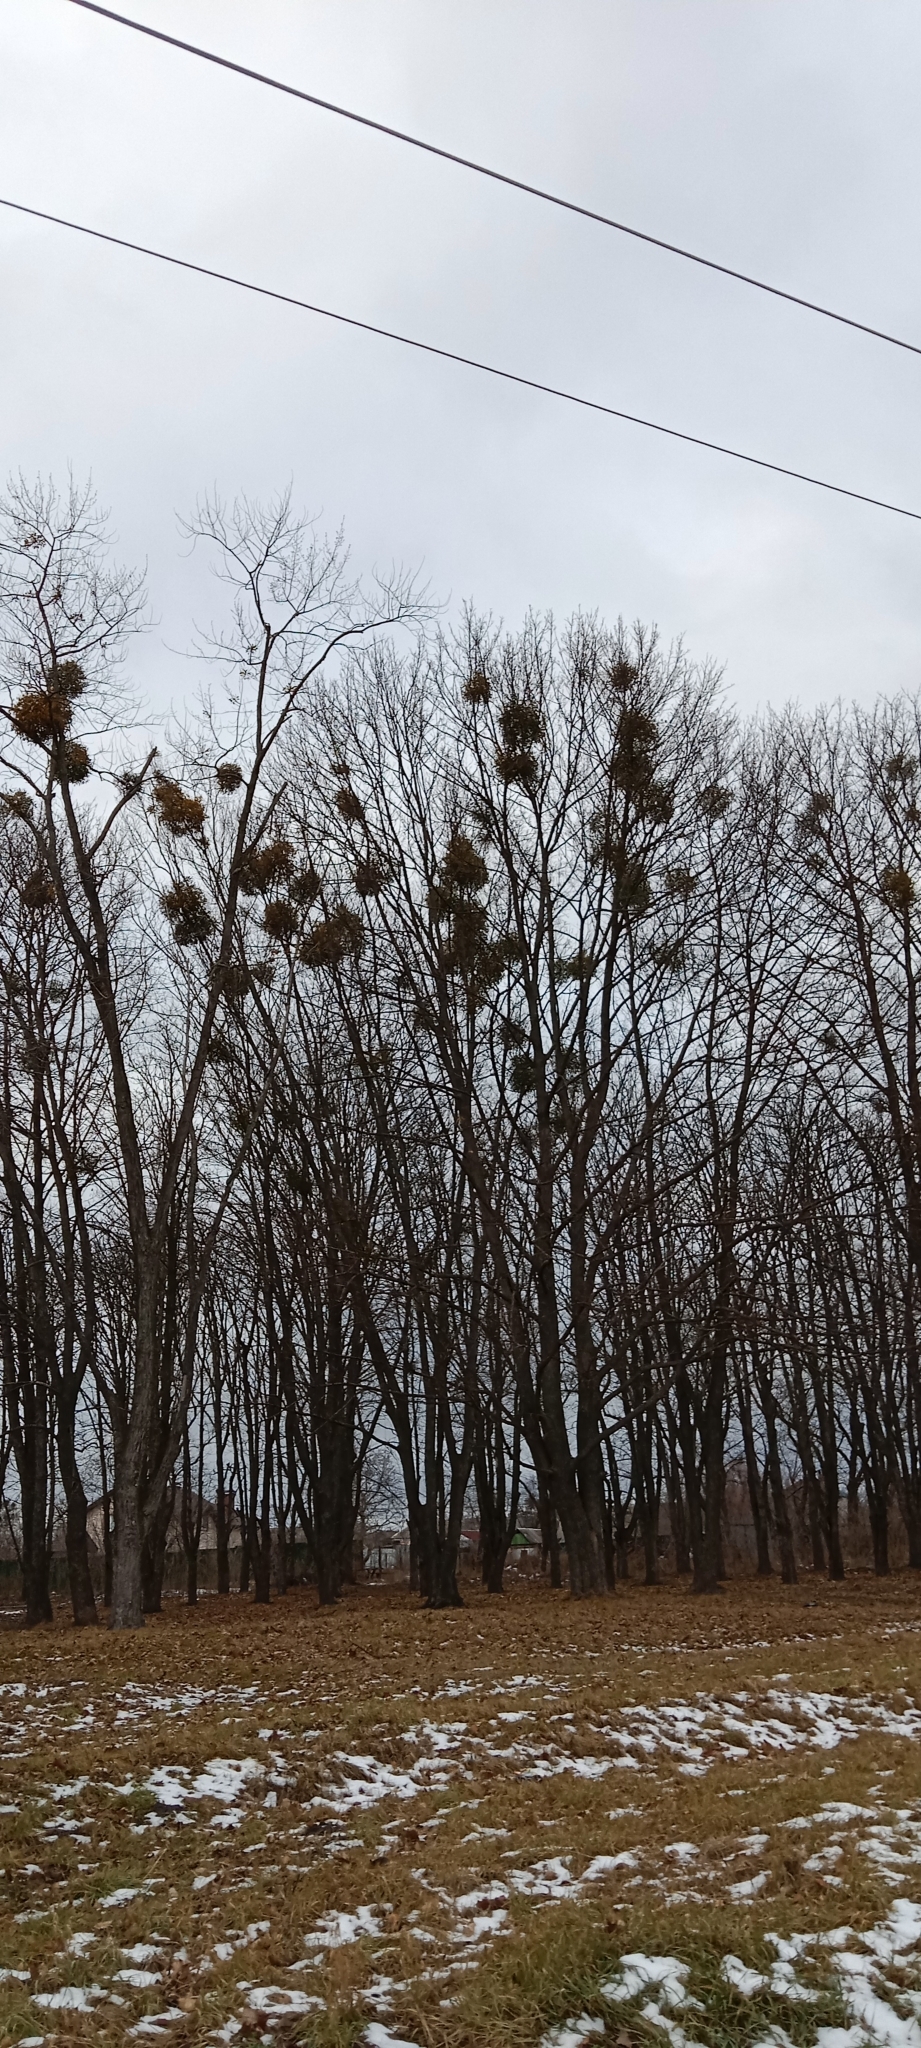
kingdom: Plantae
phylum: Tracheophyta
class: Magnoliopsida
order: Santalales
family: Viscaceae
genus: Viscum
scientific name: Viscum album
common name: Mistletoe
